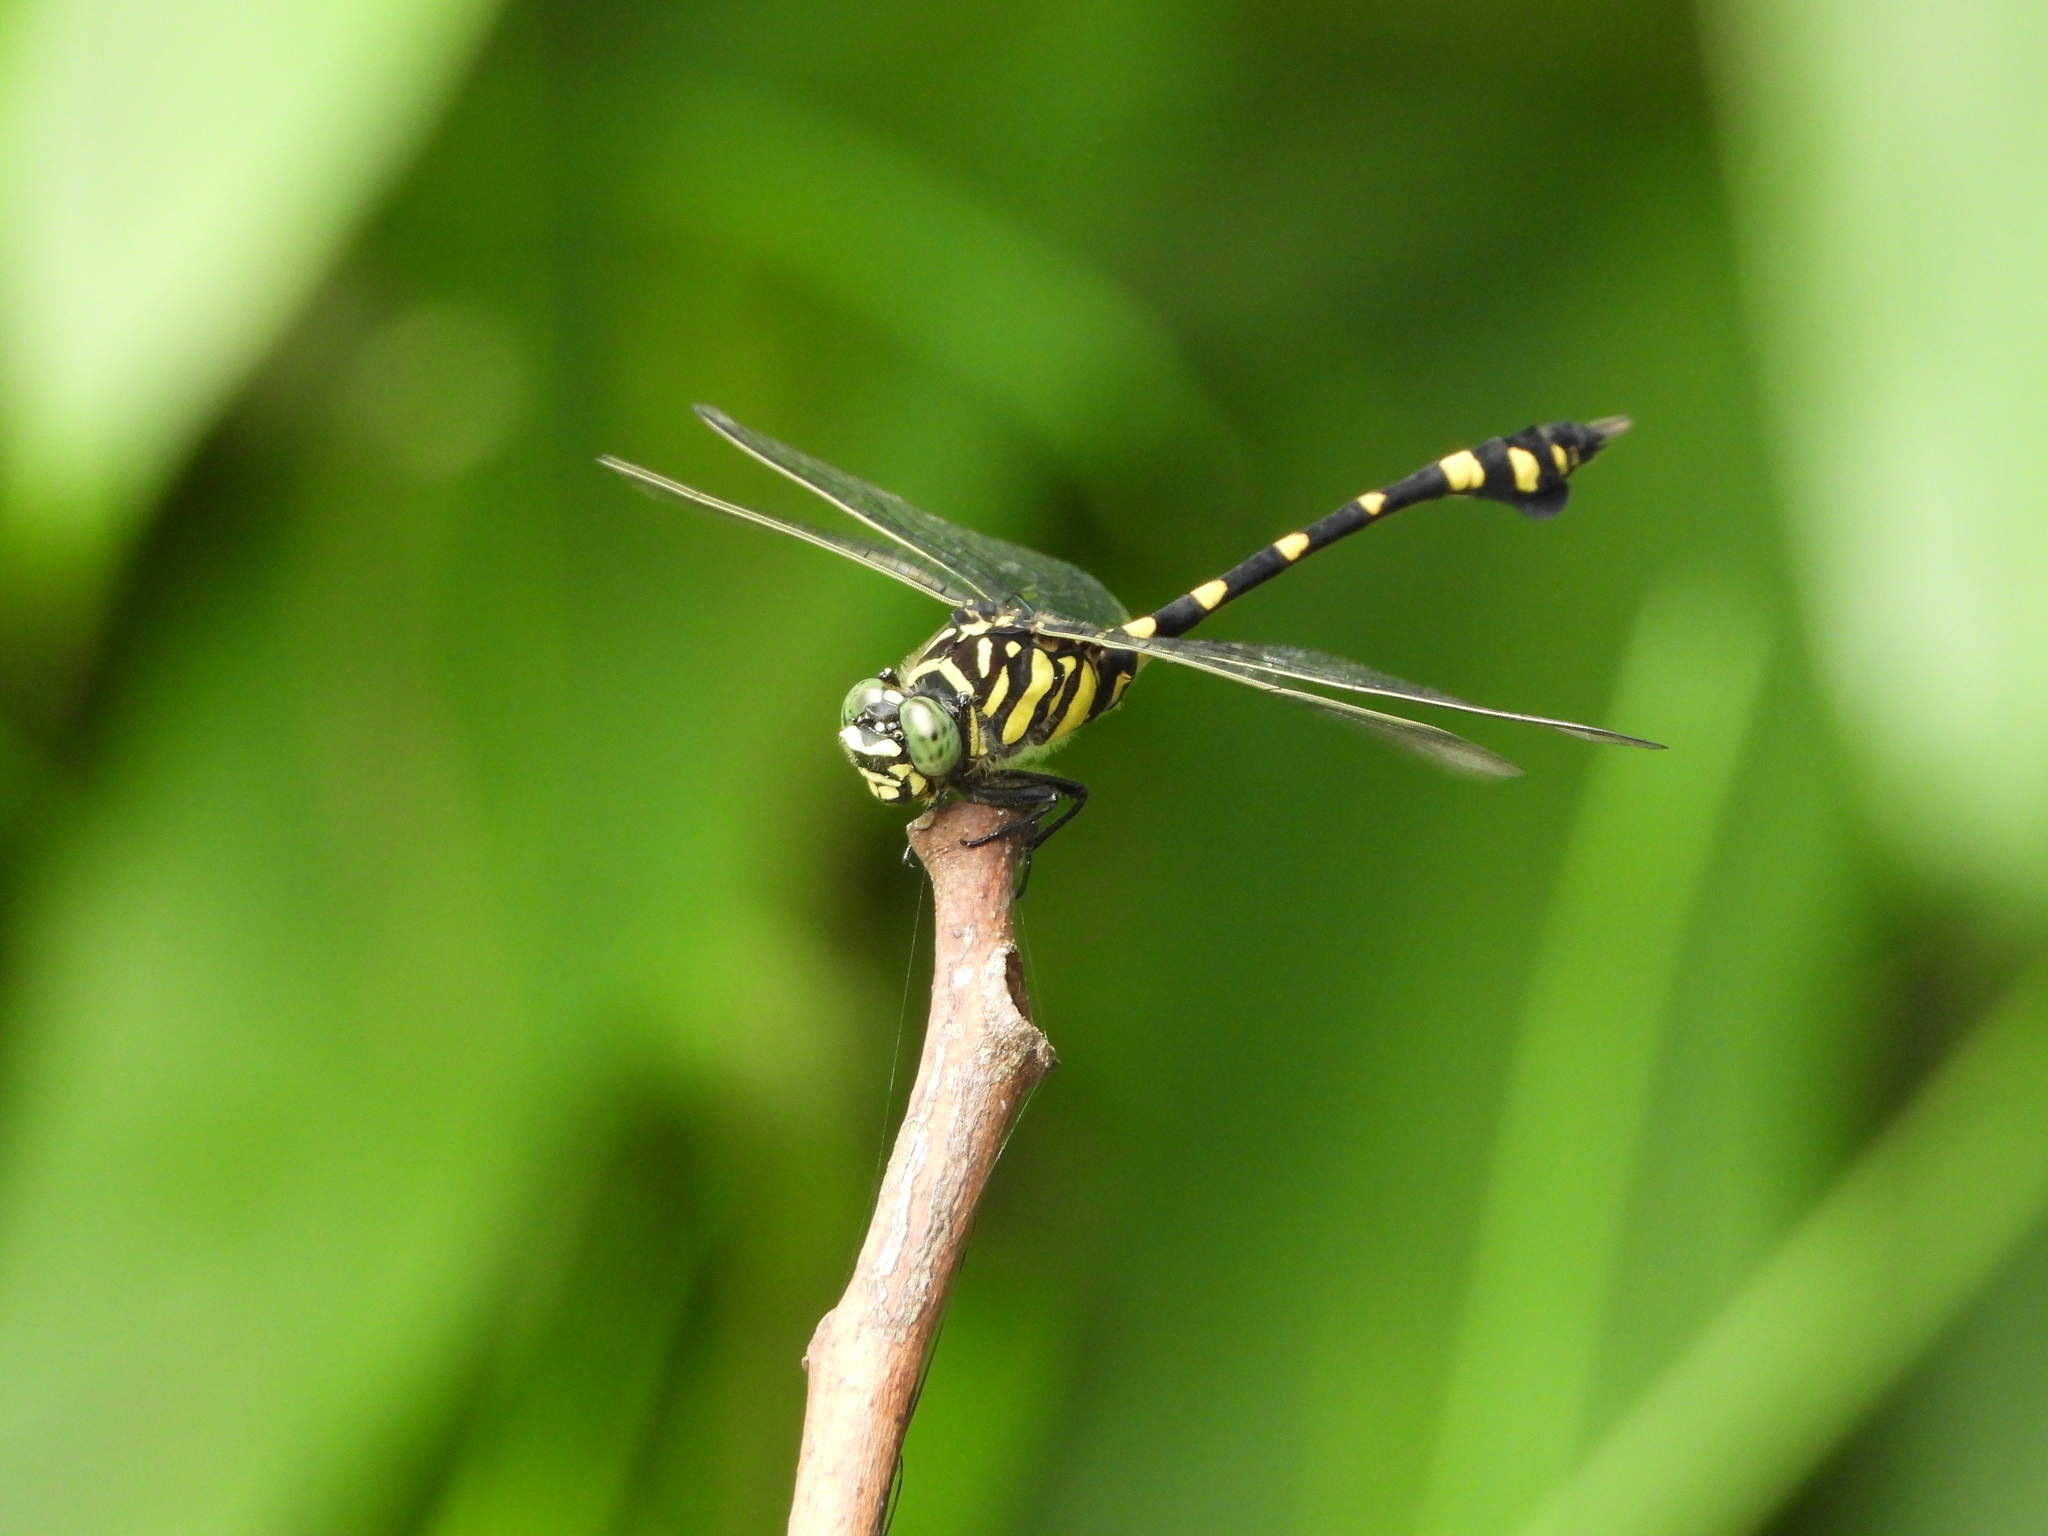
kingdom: Animalia
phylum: Arthropoda
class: Insecta
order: Odonata
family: Gomphidae
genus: Ictinogomphus
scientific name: Ictinogomphus rapax
